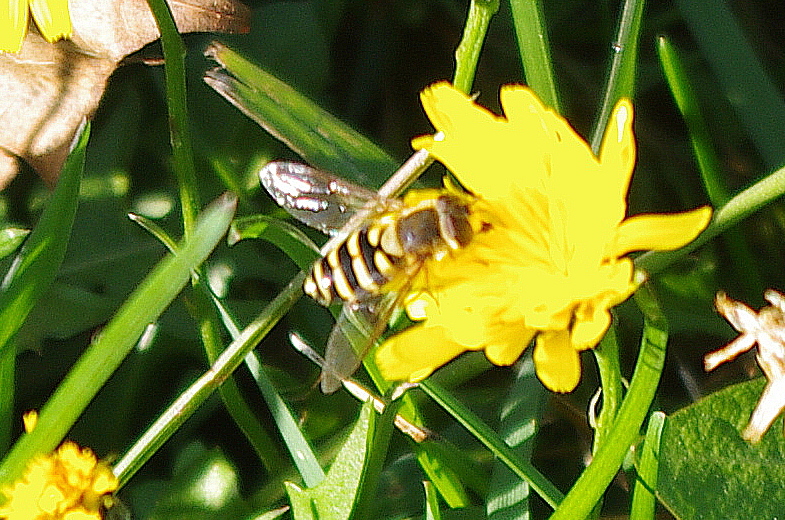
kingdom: Animalia
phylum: Arthropoda
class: Insecta
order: Diptera
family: Syrphidae
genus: Syrphus
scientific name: Syrphus
